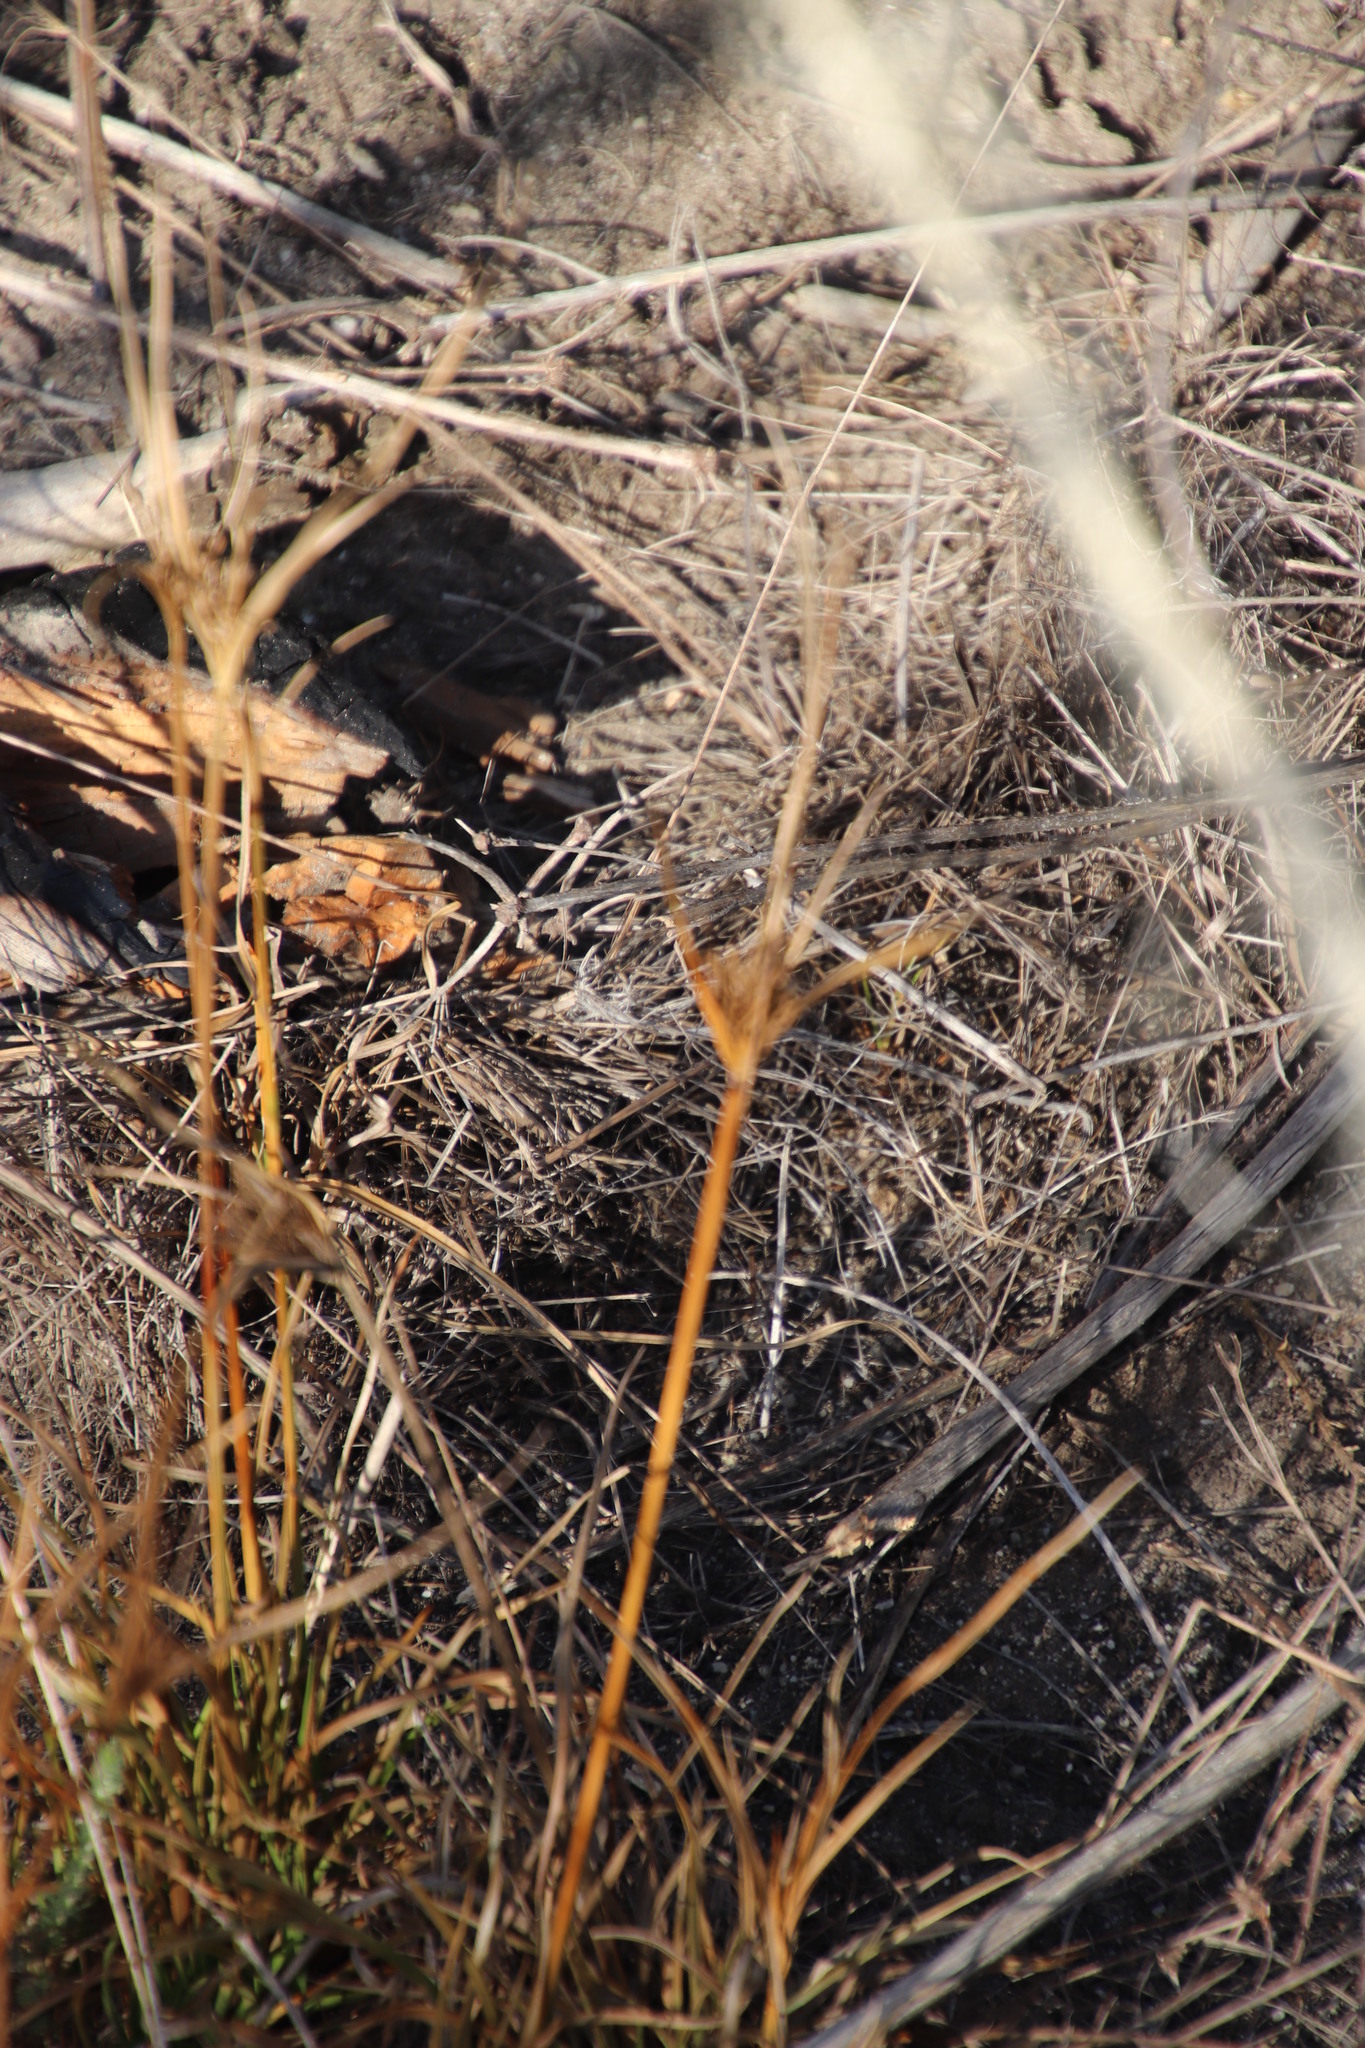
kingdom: Plantae
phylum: Tracheophyta
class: Liliopsida
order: Poales
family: Cyperaceae
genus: Cyperus
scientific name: Cyperus polystachyos
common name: Bunchy flat sedge
